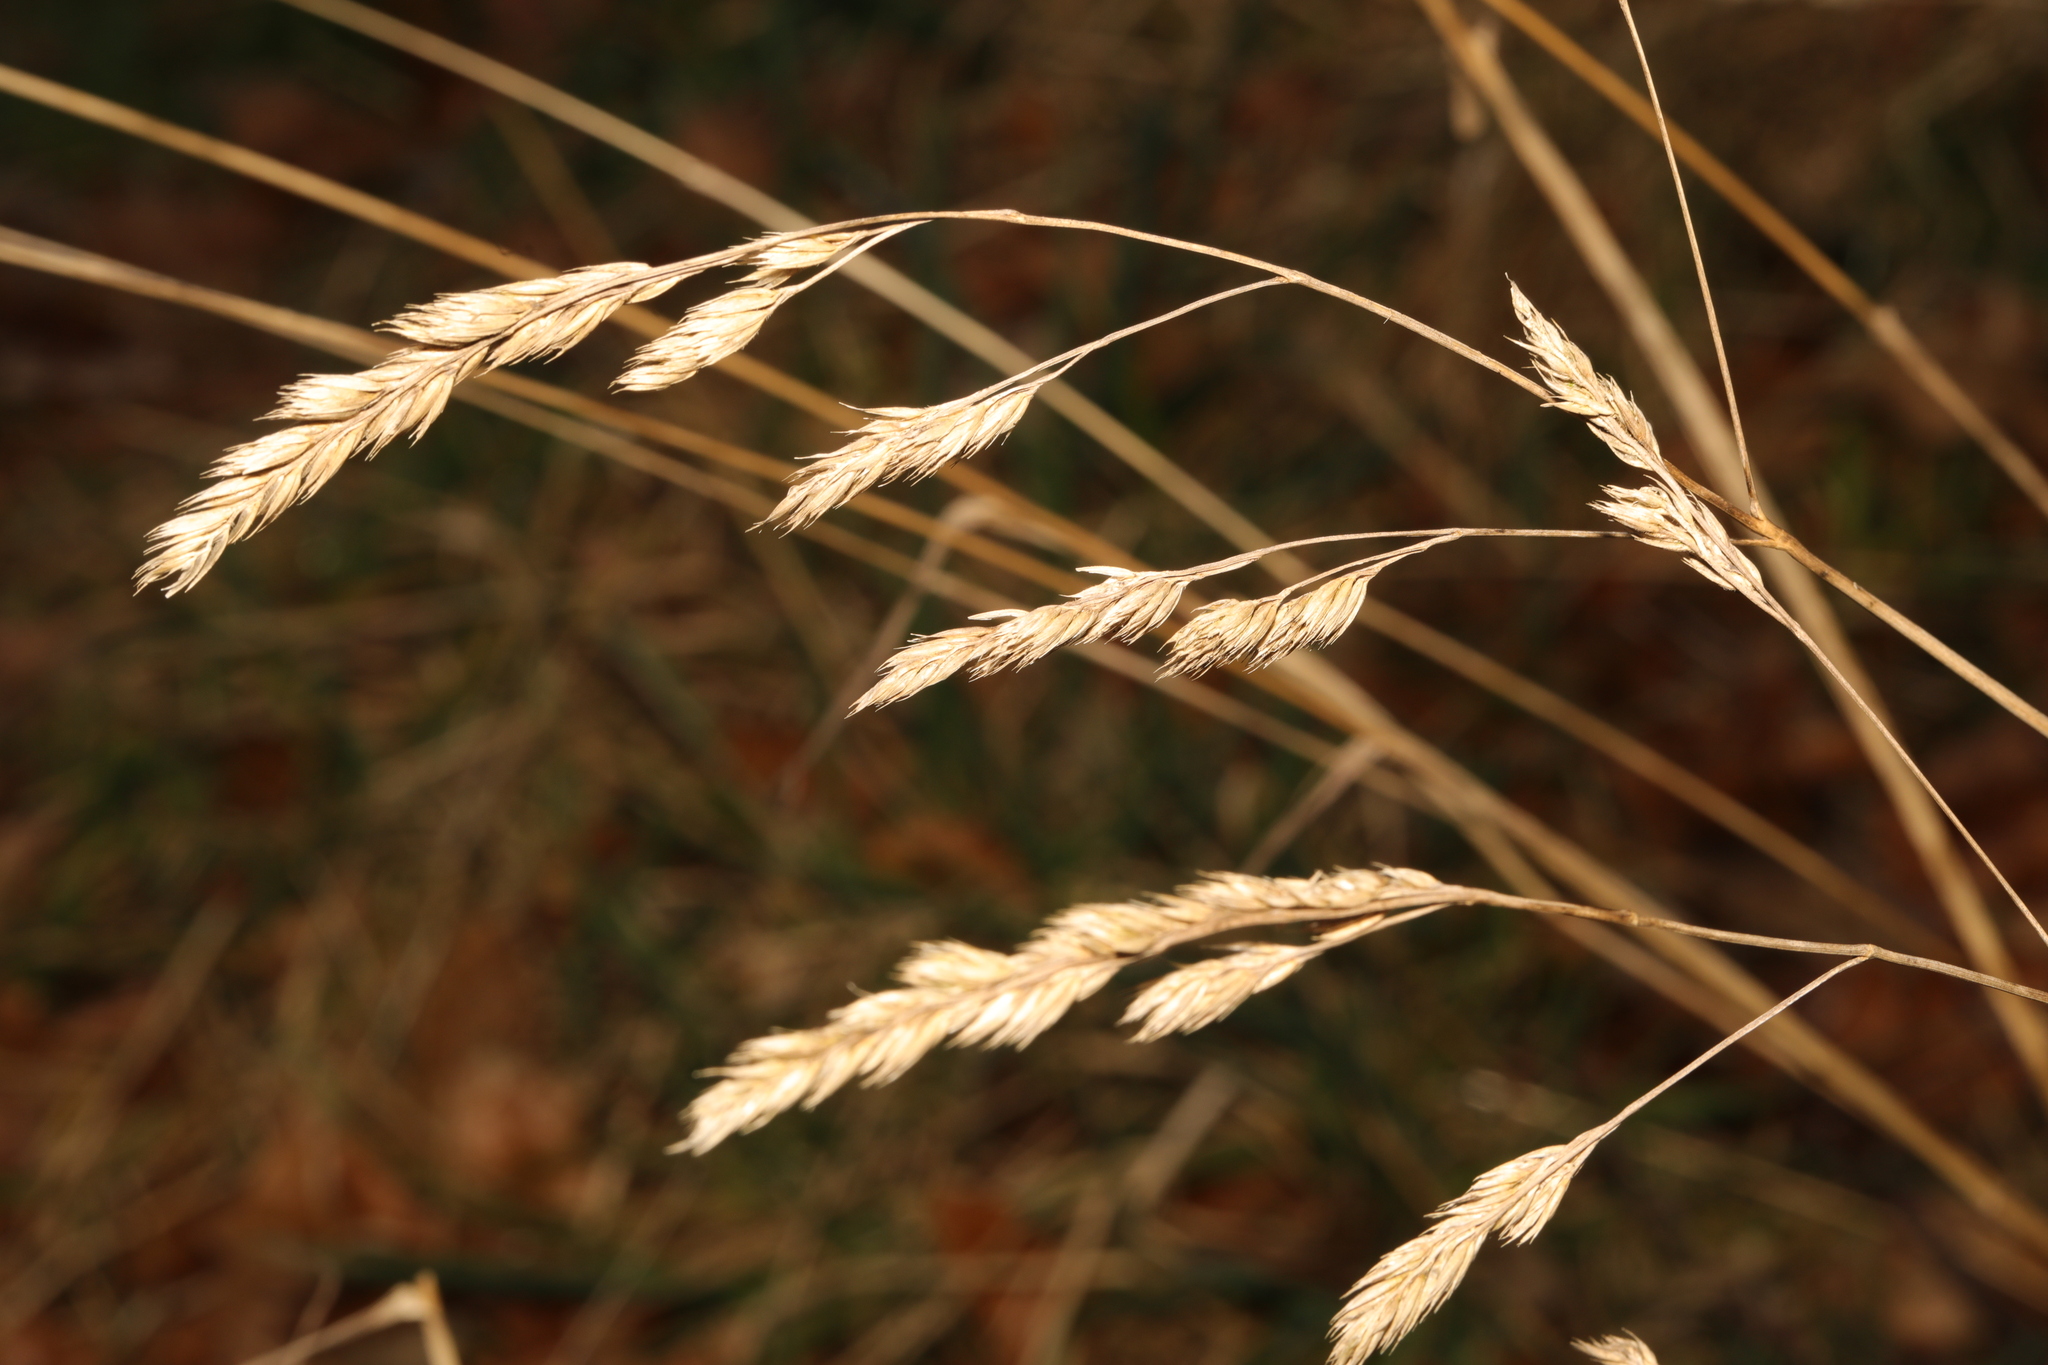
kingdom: Plantae
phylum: Tracheophyta
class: Liliopsida
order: Poales
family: Poaceae
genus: Dactylis
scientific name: Dactylis glomerata
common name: Orchardgrass
